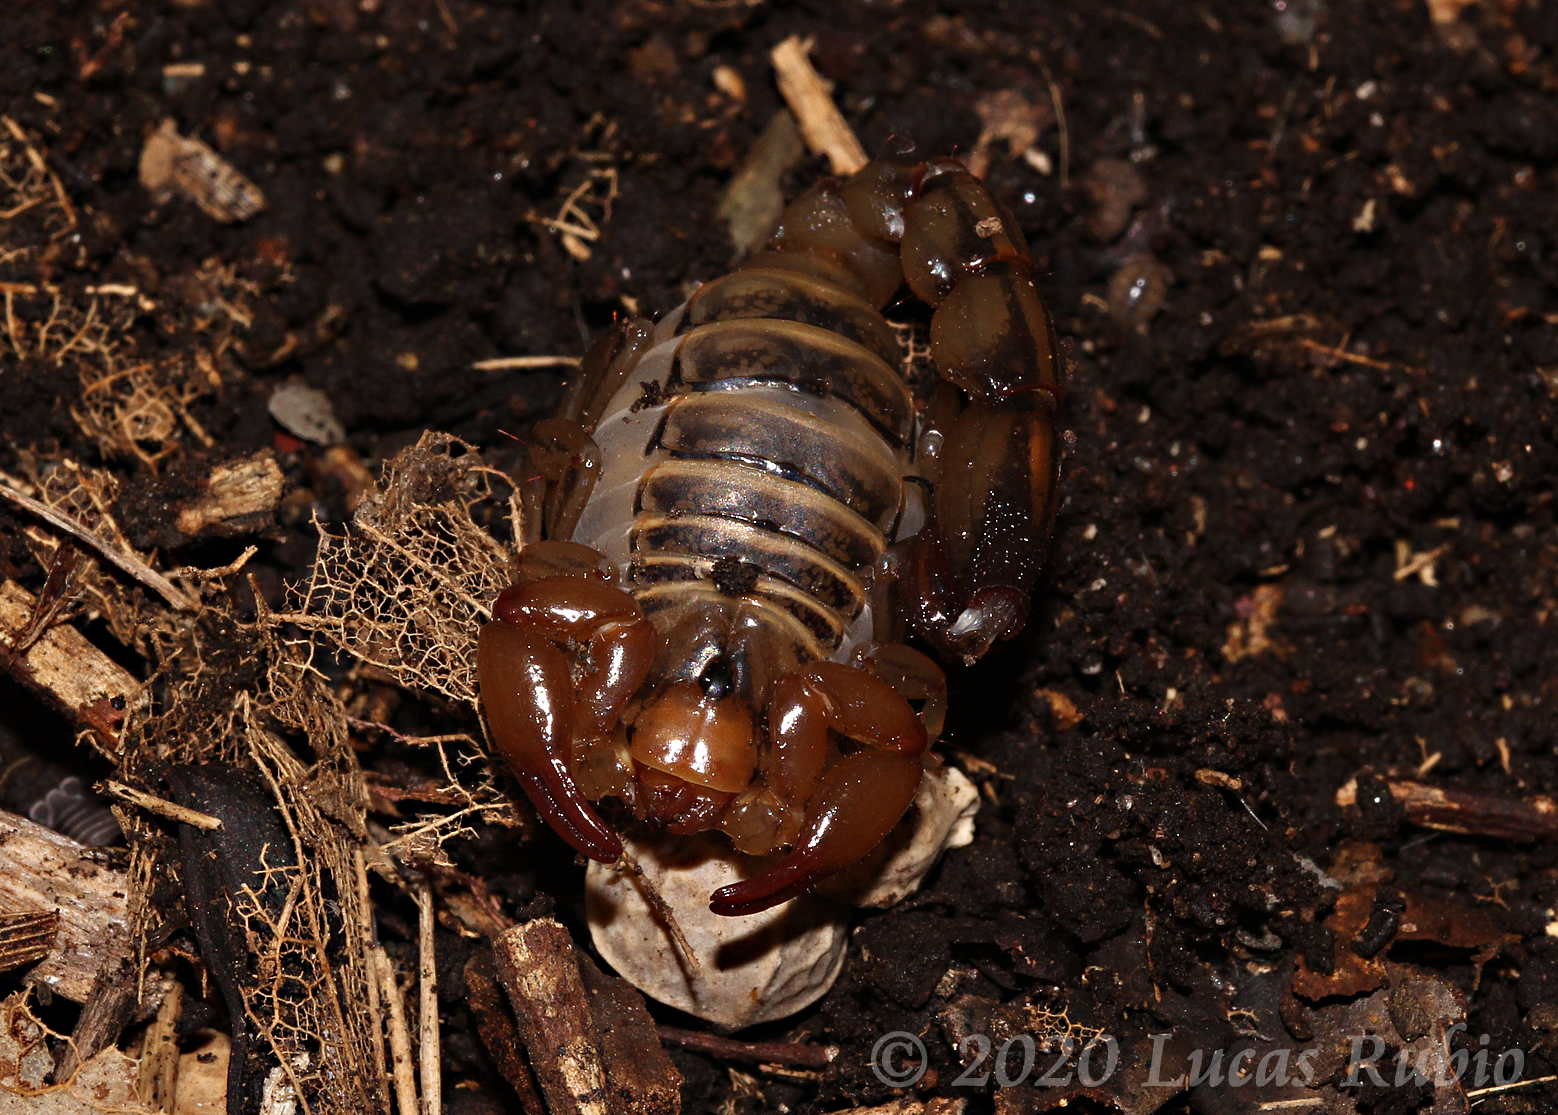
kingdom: Animalia
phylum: Arthropoda
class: Arachnida
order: Scorpiones
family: Bothriuridae
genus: Bothriurus
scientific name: Bothriurus prospicuus
